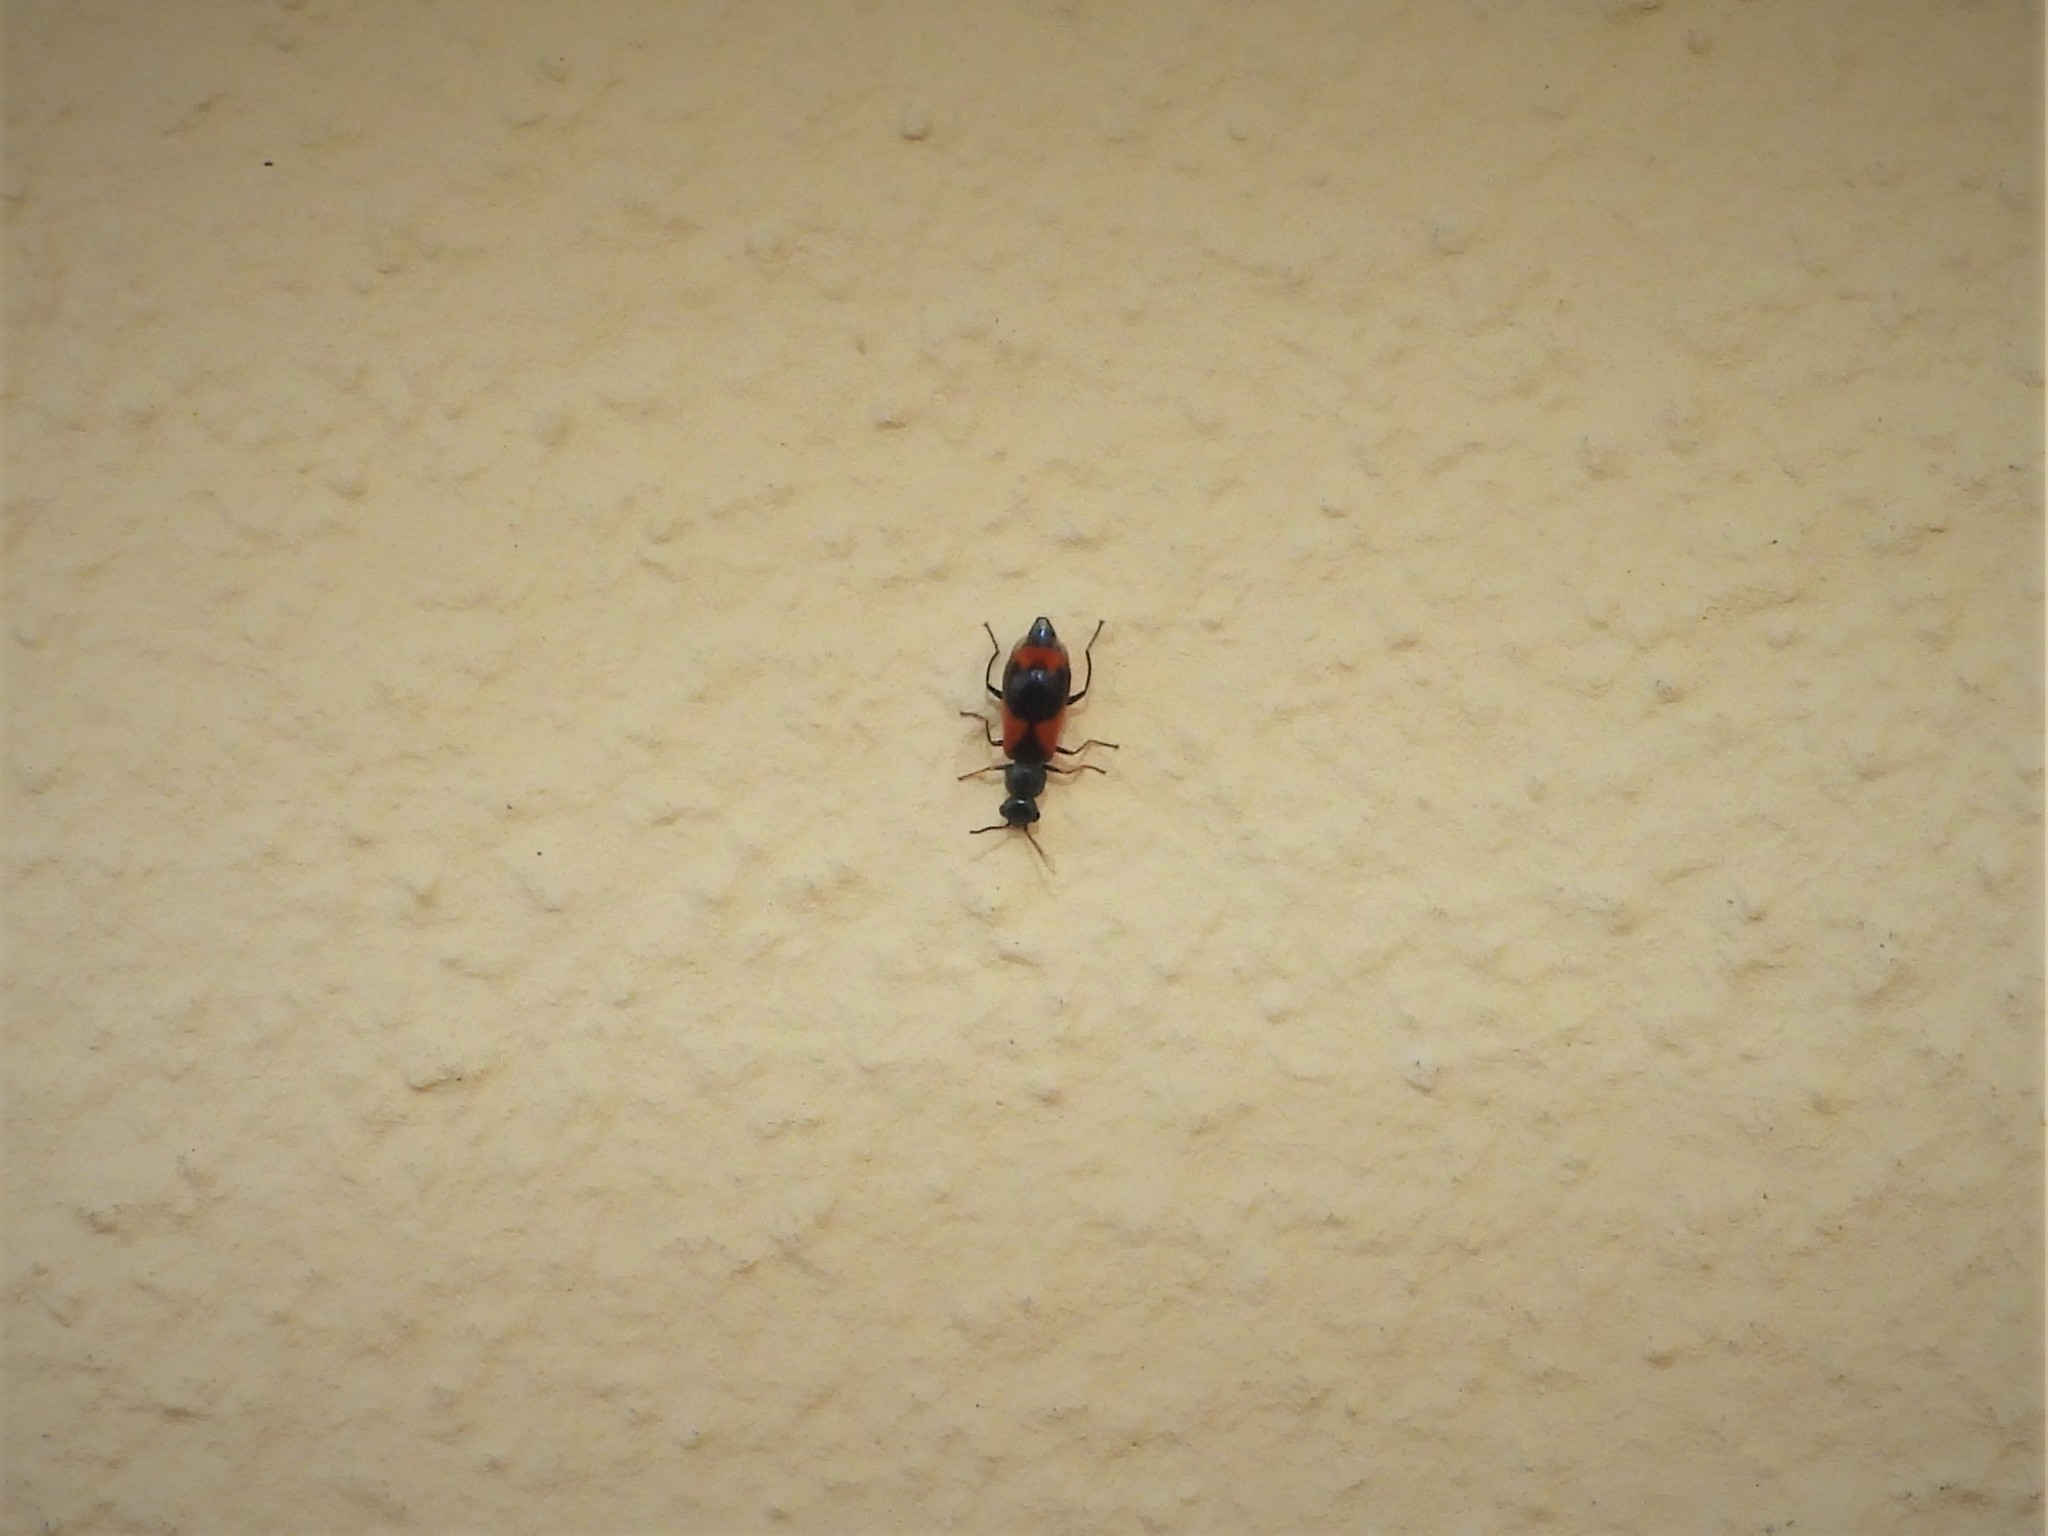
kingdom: Animalia
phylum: Arthropoda
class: Insecta
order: Coleoptera
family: Melyridae
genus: Anthocomus
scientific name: Anthocomus equestris
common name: Black-banded soft-winged flower beetle
